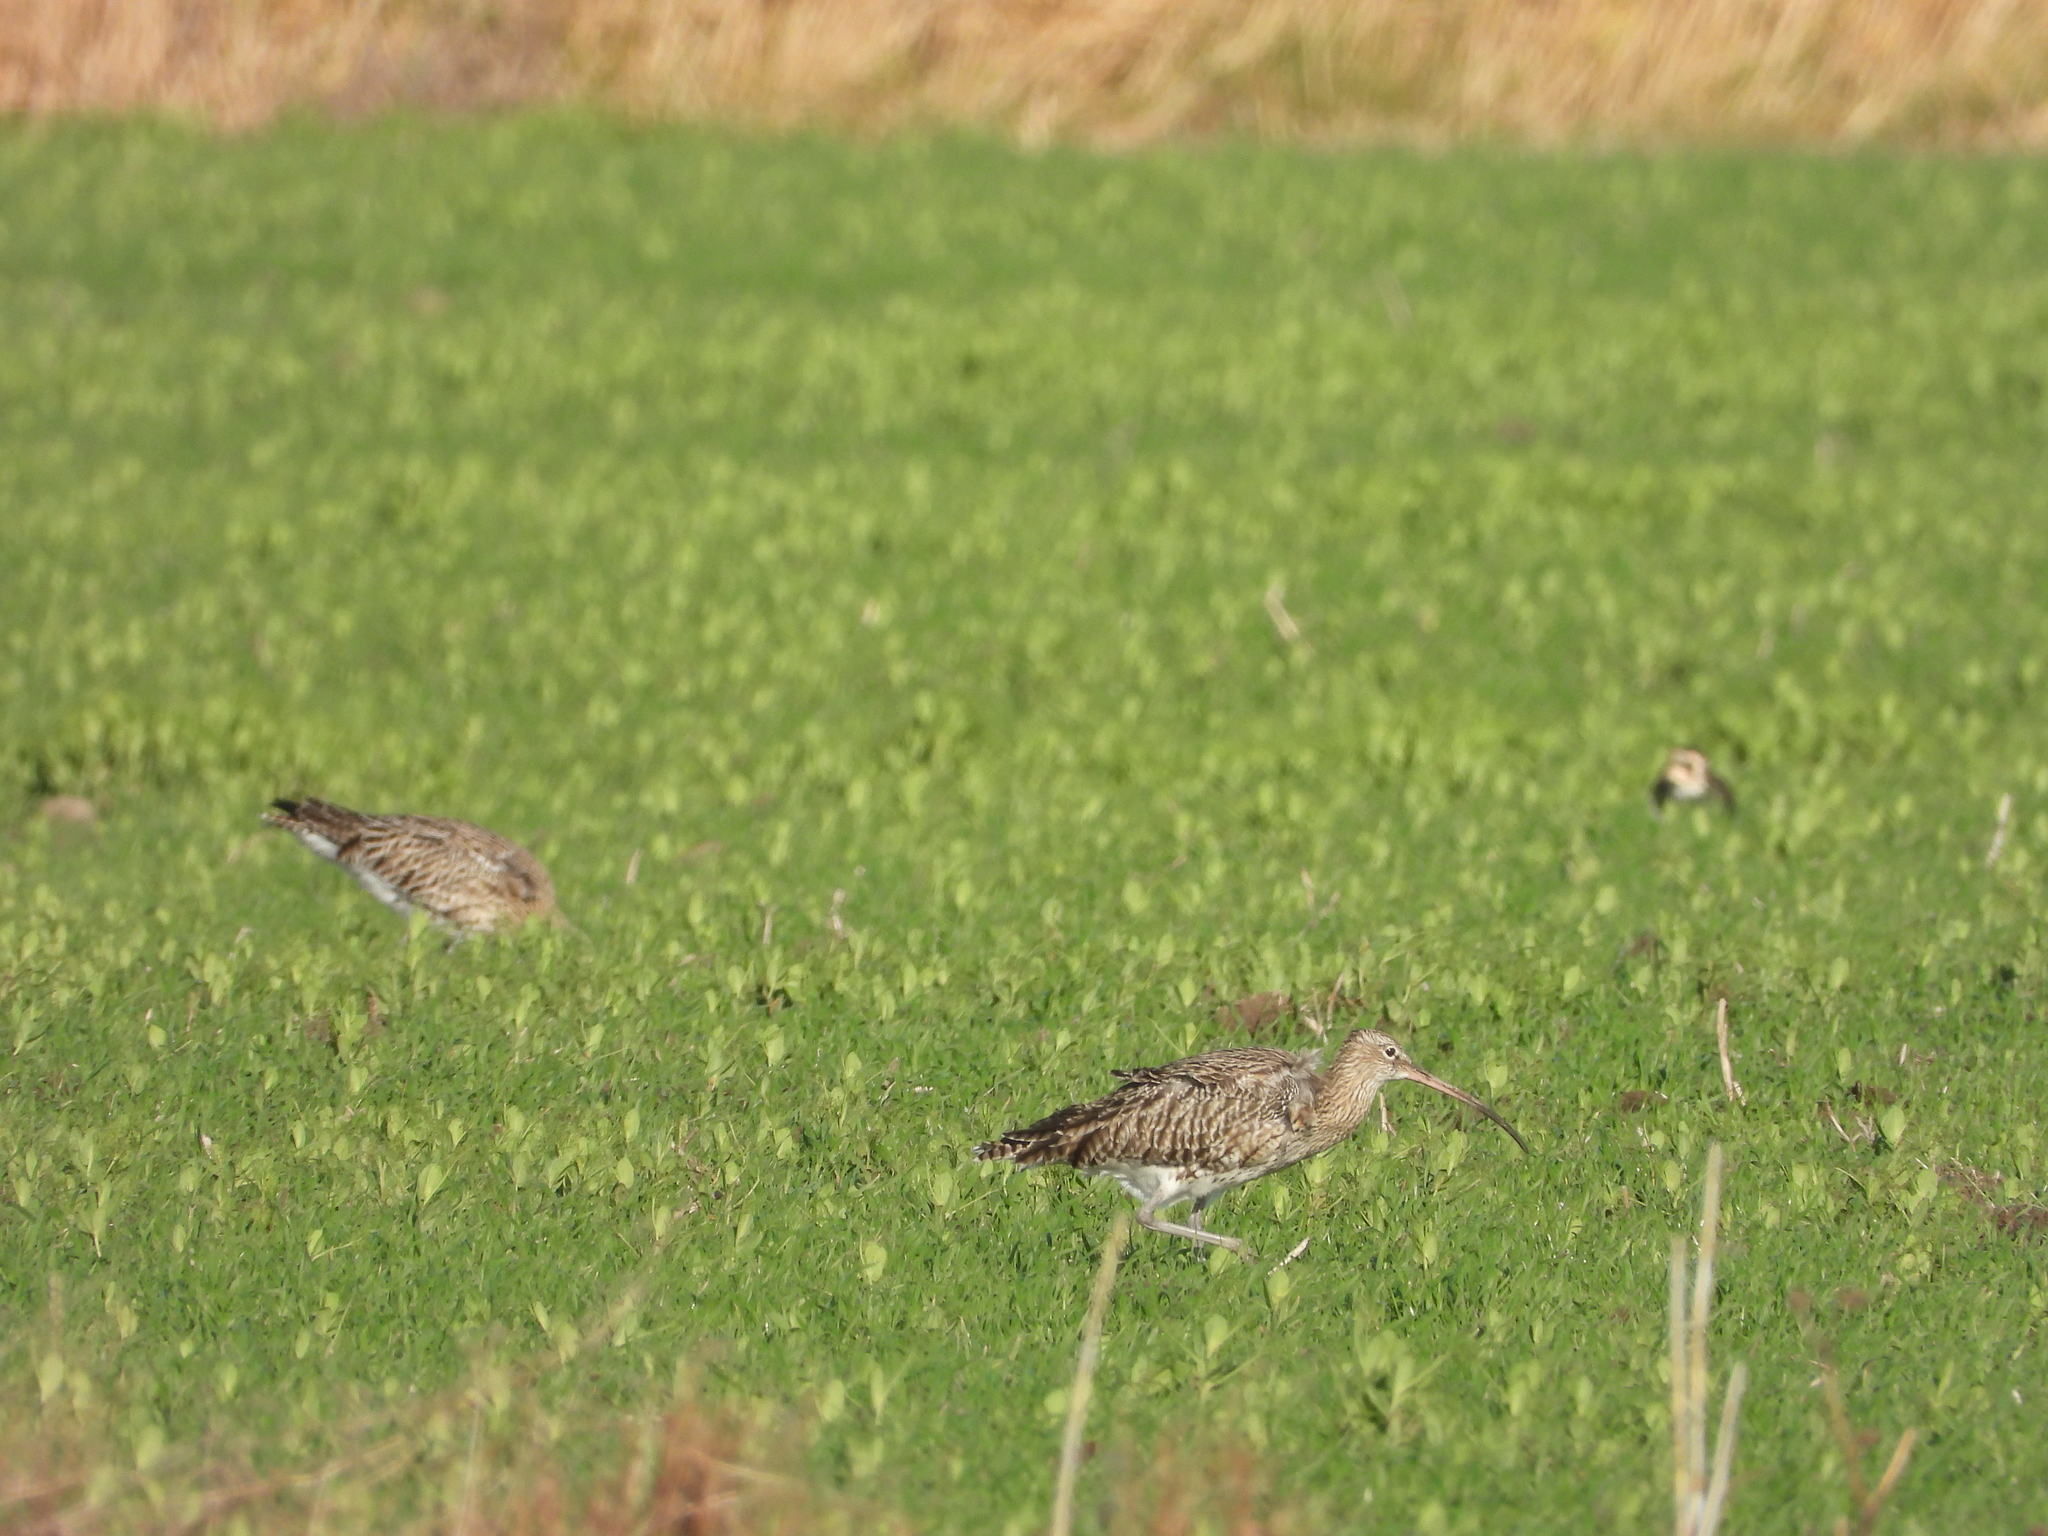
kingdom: Animalia
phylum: Chordata
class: Aves
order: Charadriiformes
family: Scolopacidae
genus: Numenius
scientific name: Numenius arquata
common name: Eurasian curlew
